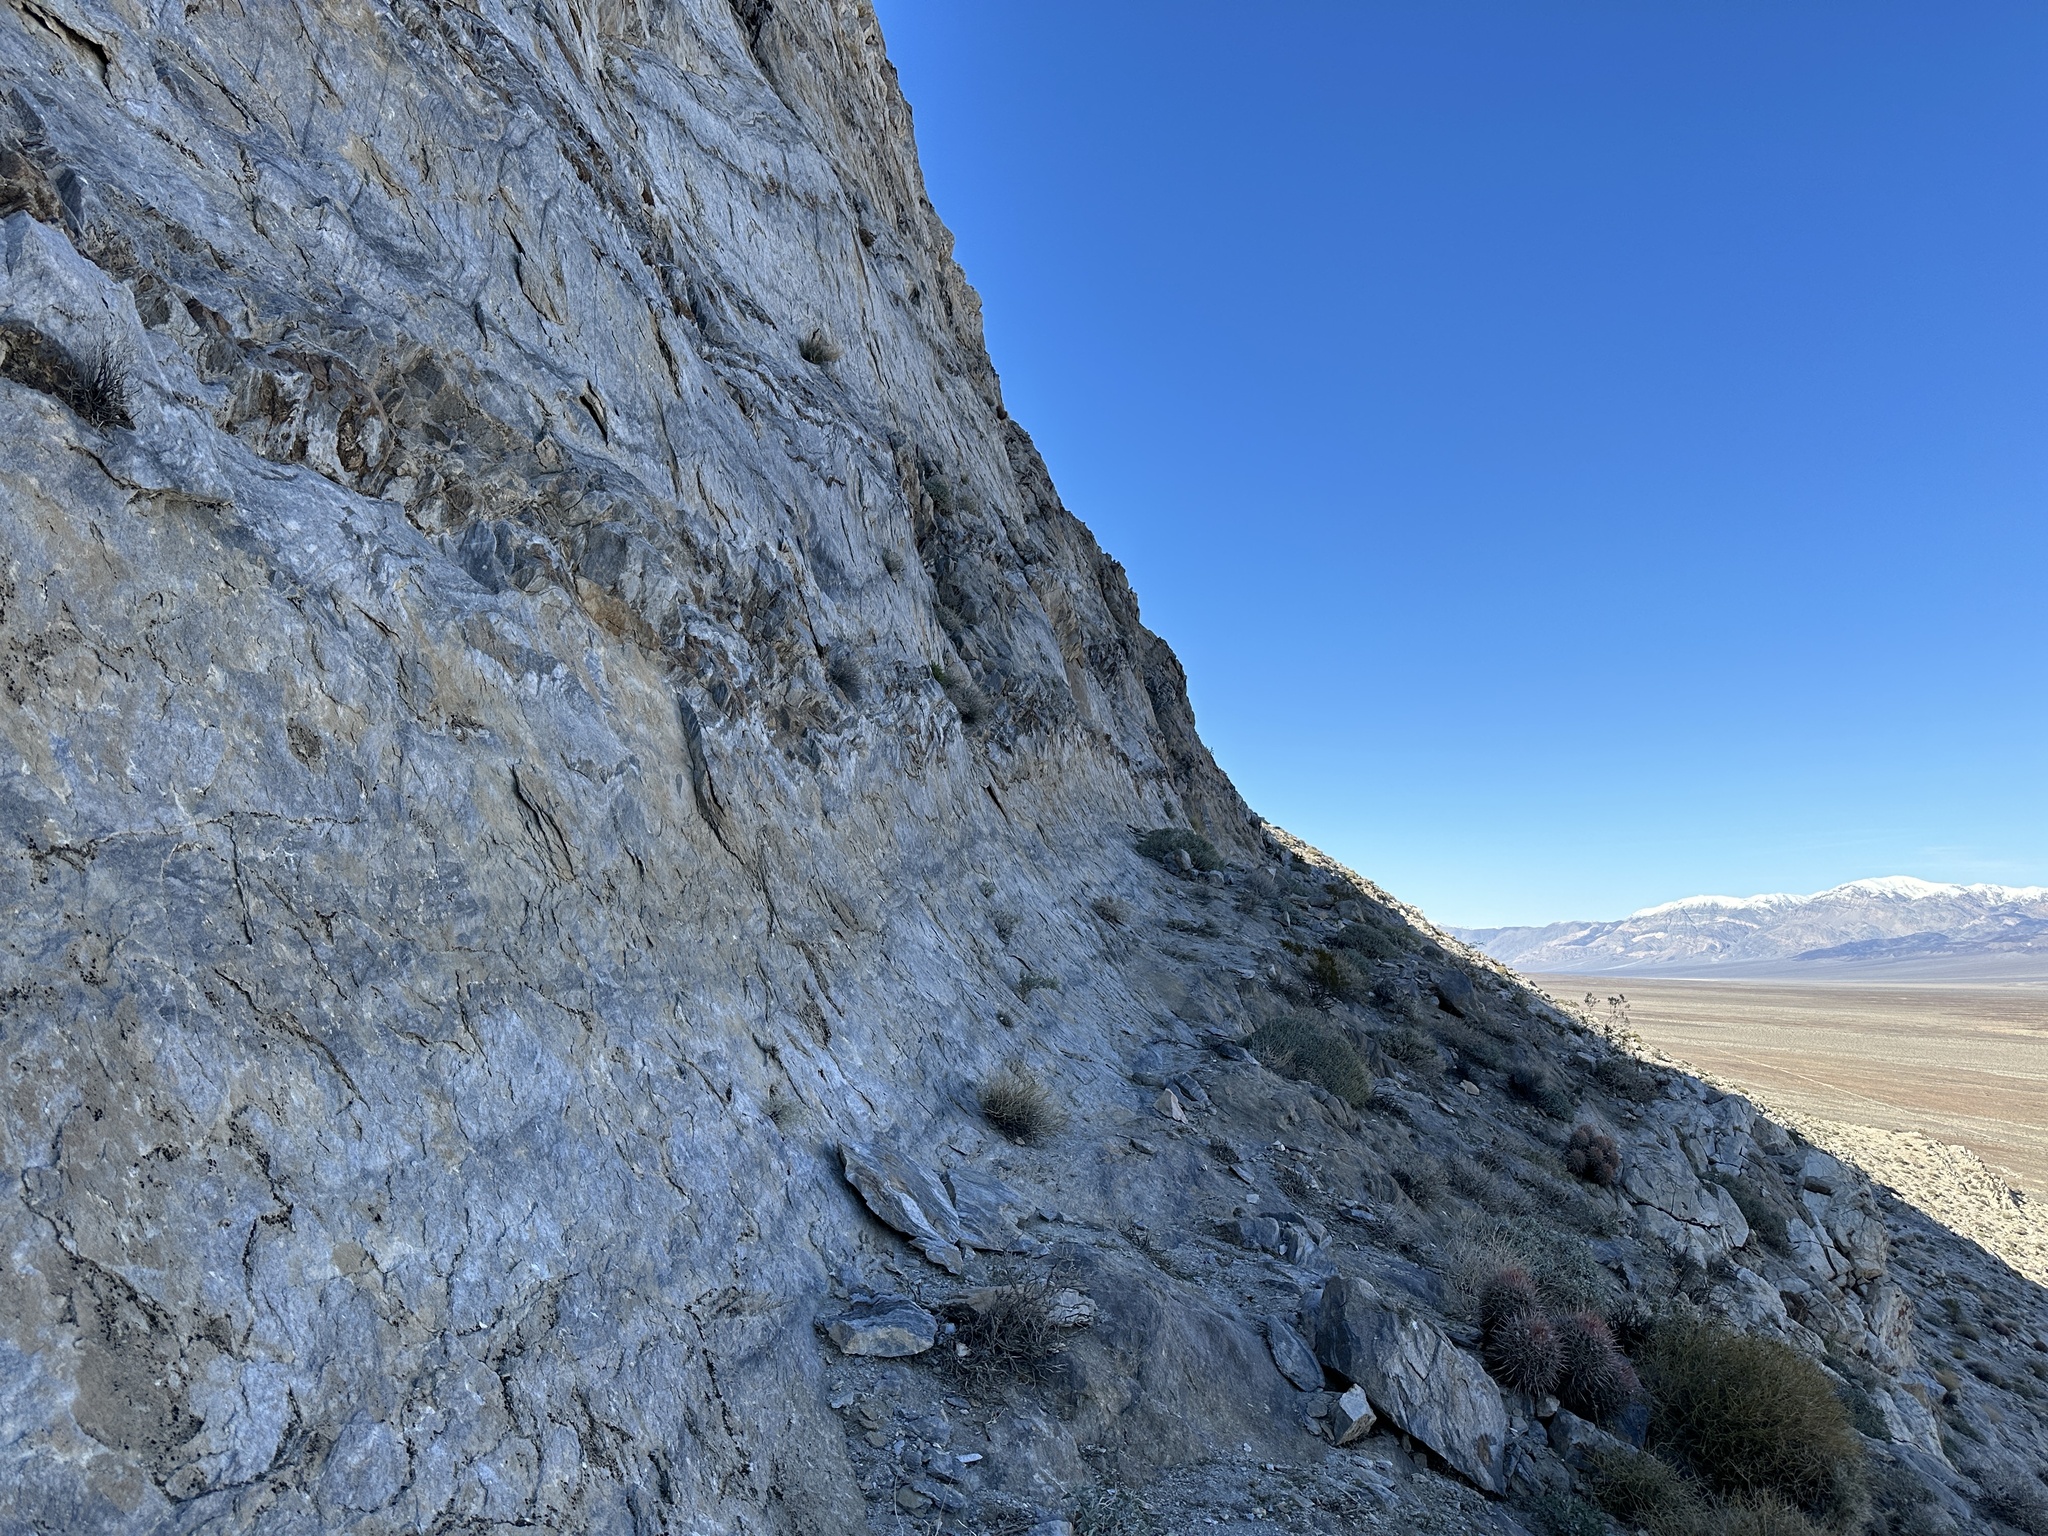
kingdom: Plantae
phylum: Tracheophyta
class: Magnoliopsida
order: Lamiales
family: Phrymaceae
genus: Diplacus
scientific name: Diplacus rupicola
